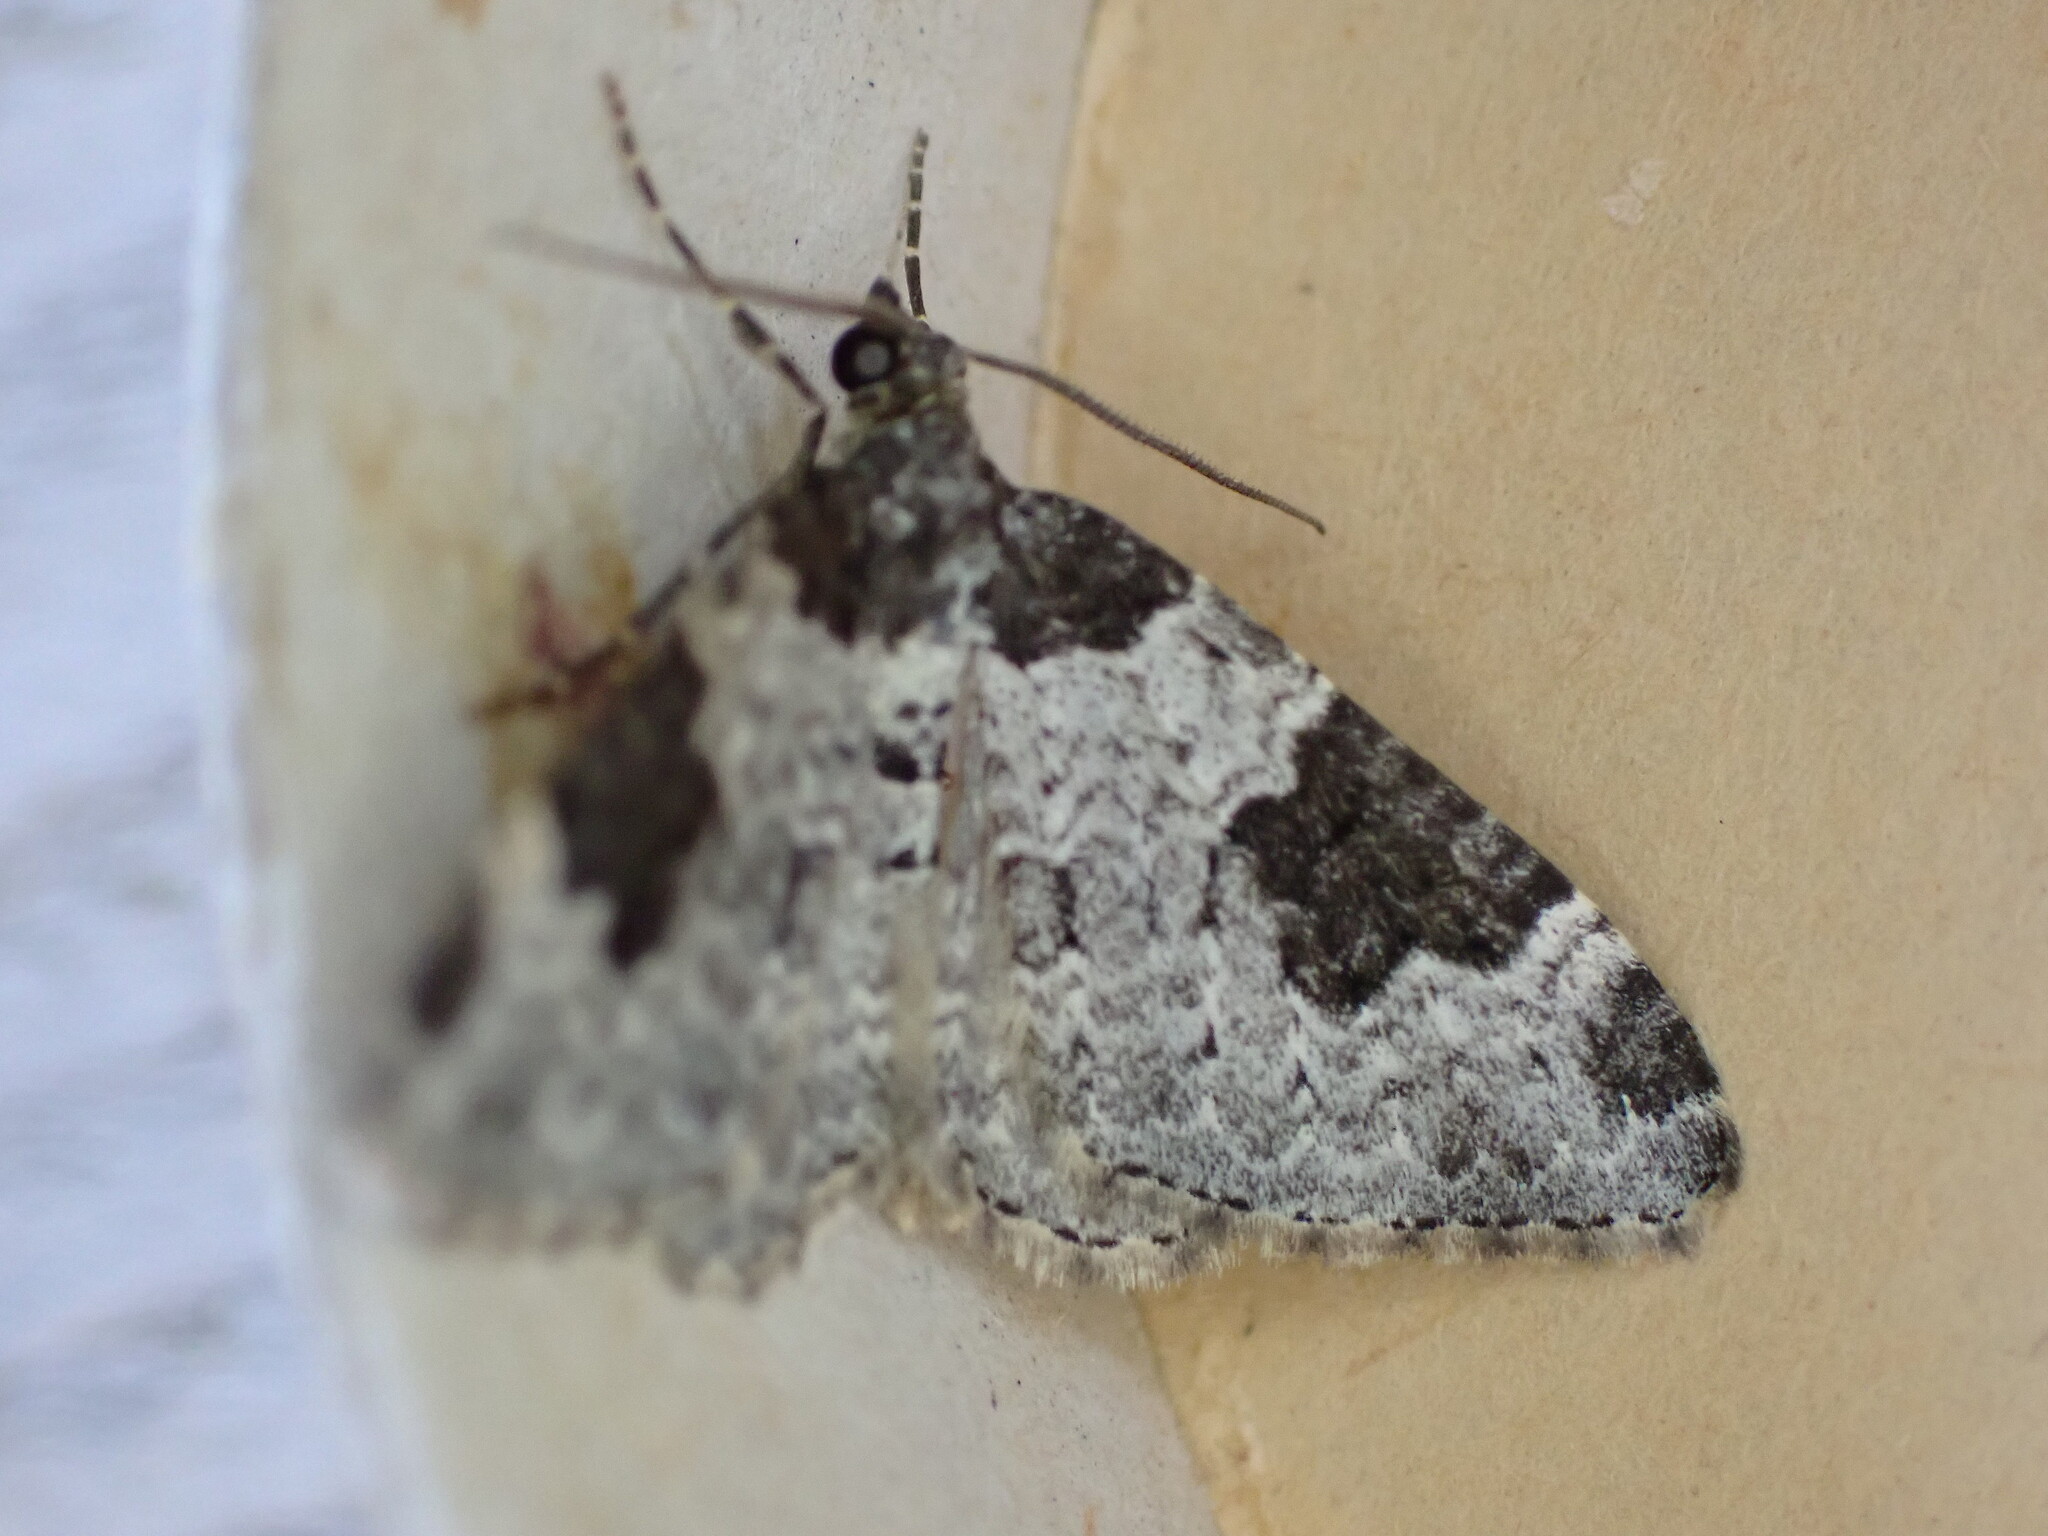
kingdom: Animalia
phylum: Arthropoda
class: Insecta
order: Lepidoptera
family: Geometridae
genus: Xanthorhoe
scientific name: Xanthorhoe fluctuata
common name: Garden carpet
